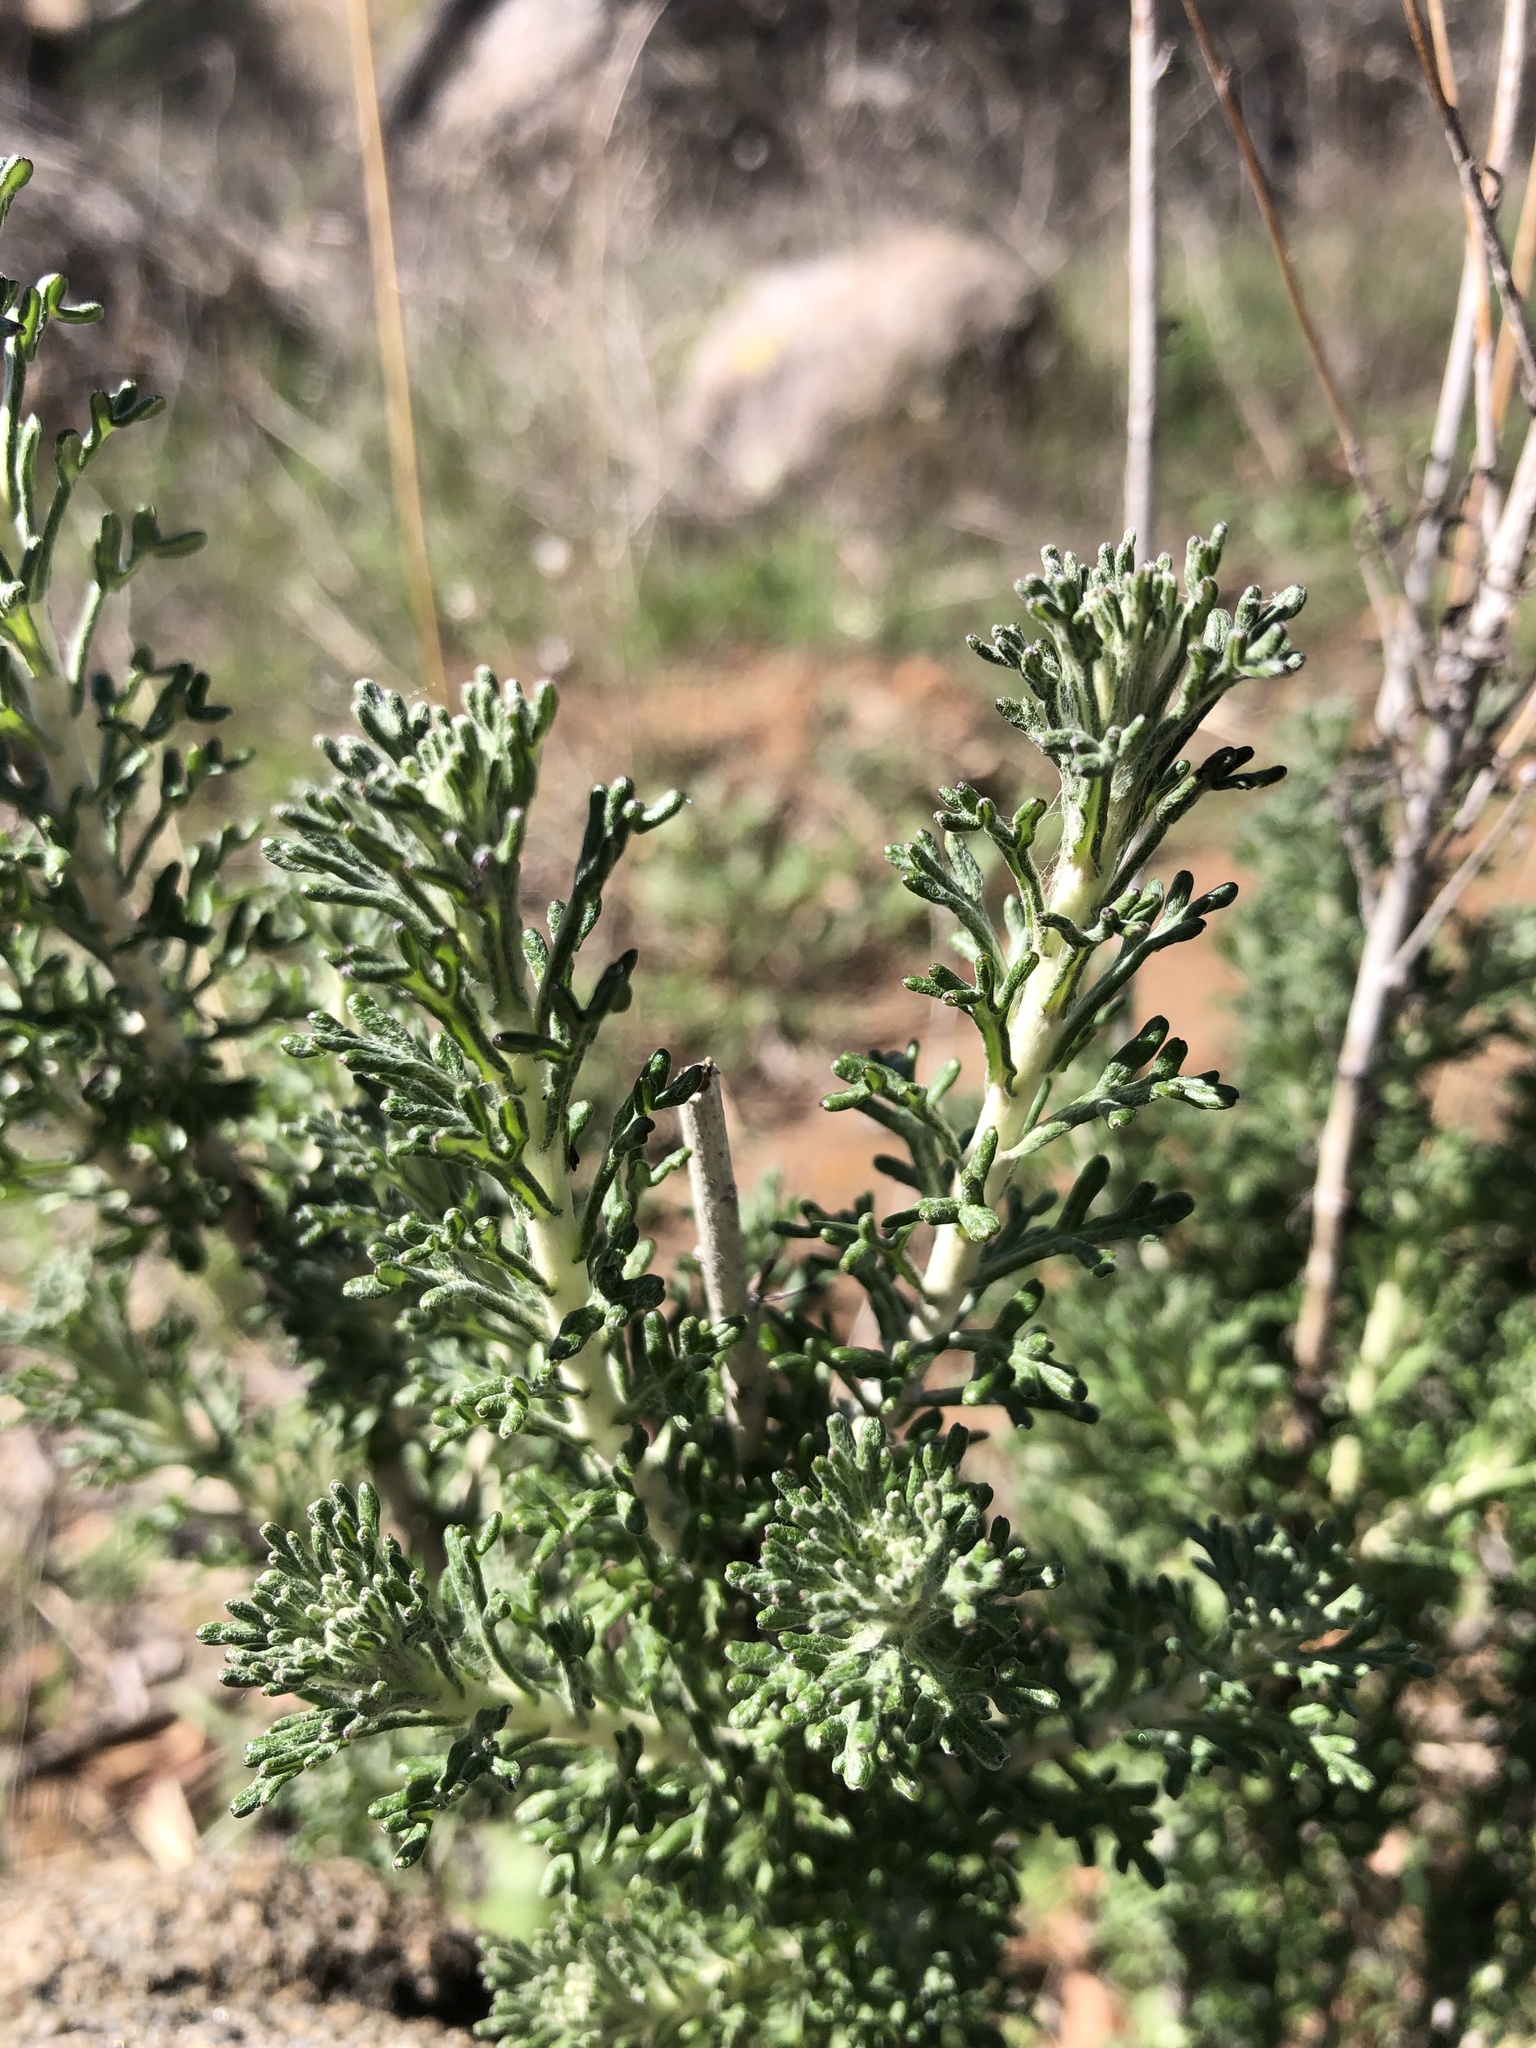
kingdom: Plantae
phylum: Tracheophyta
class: Magnoliopsida
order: Asterales
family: Asteraceae
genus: Eriophyllum
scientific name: Eriophyllum confertiflorum
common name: Golden-yarrow
